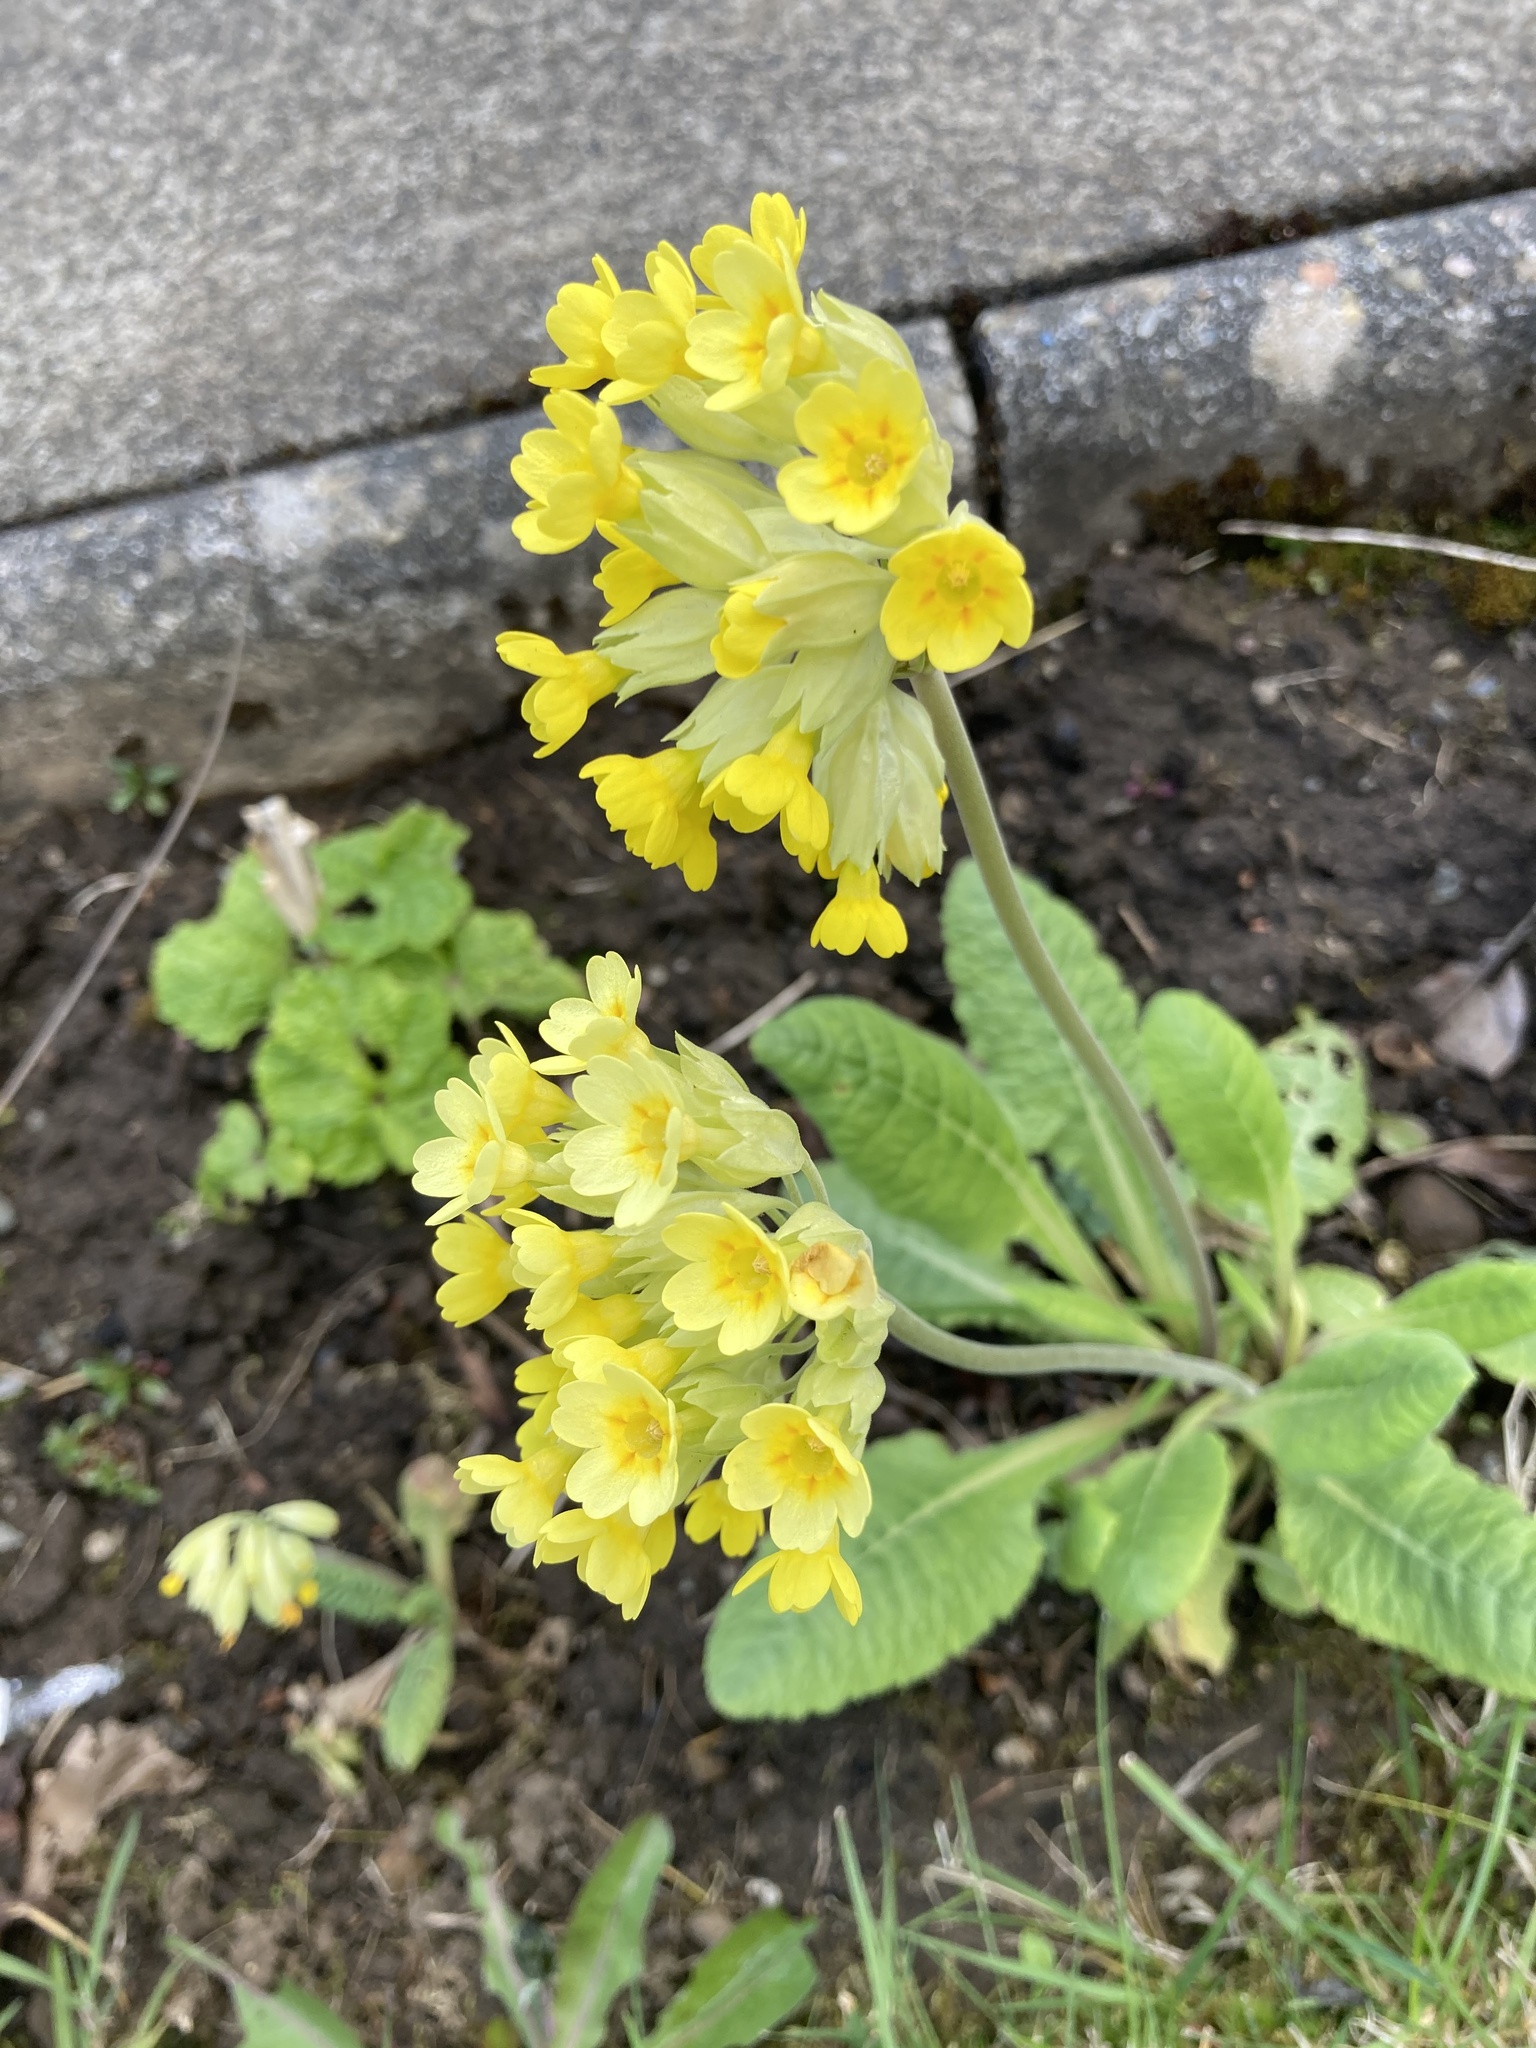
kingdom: Plantae
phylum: Tracheophyta
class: Magnoliopsida
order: Ericales
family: Primulaceae
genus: Primula
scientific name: Primula veris
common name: Cowslip
